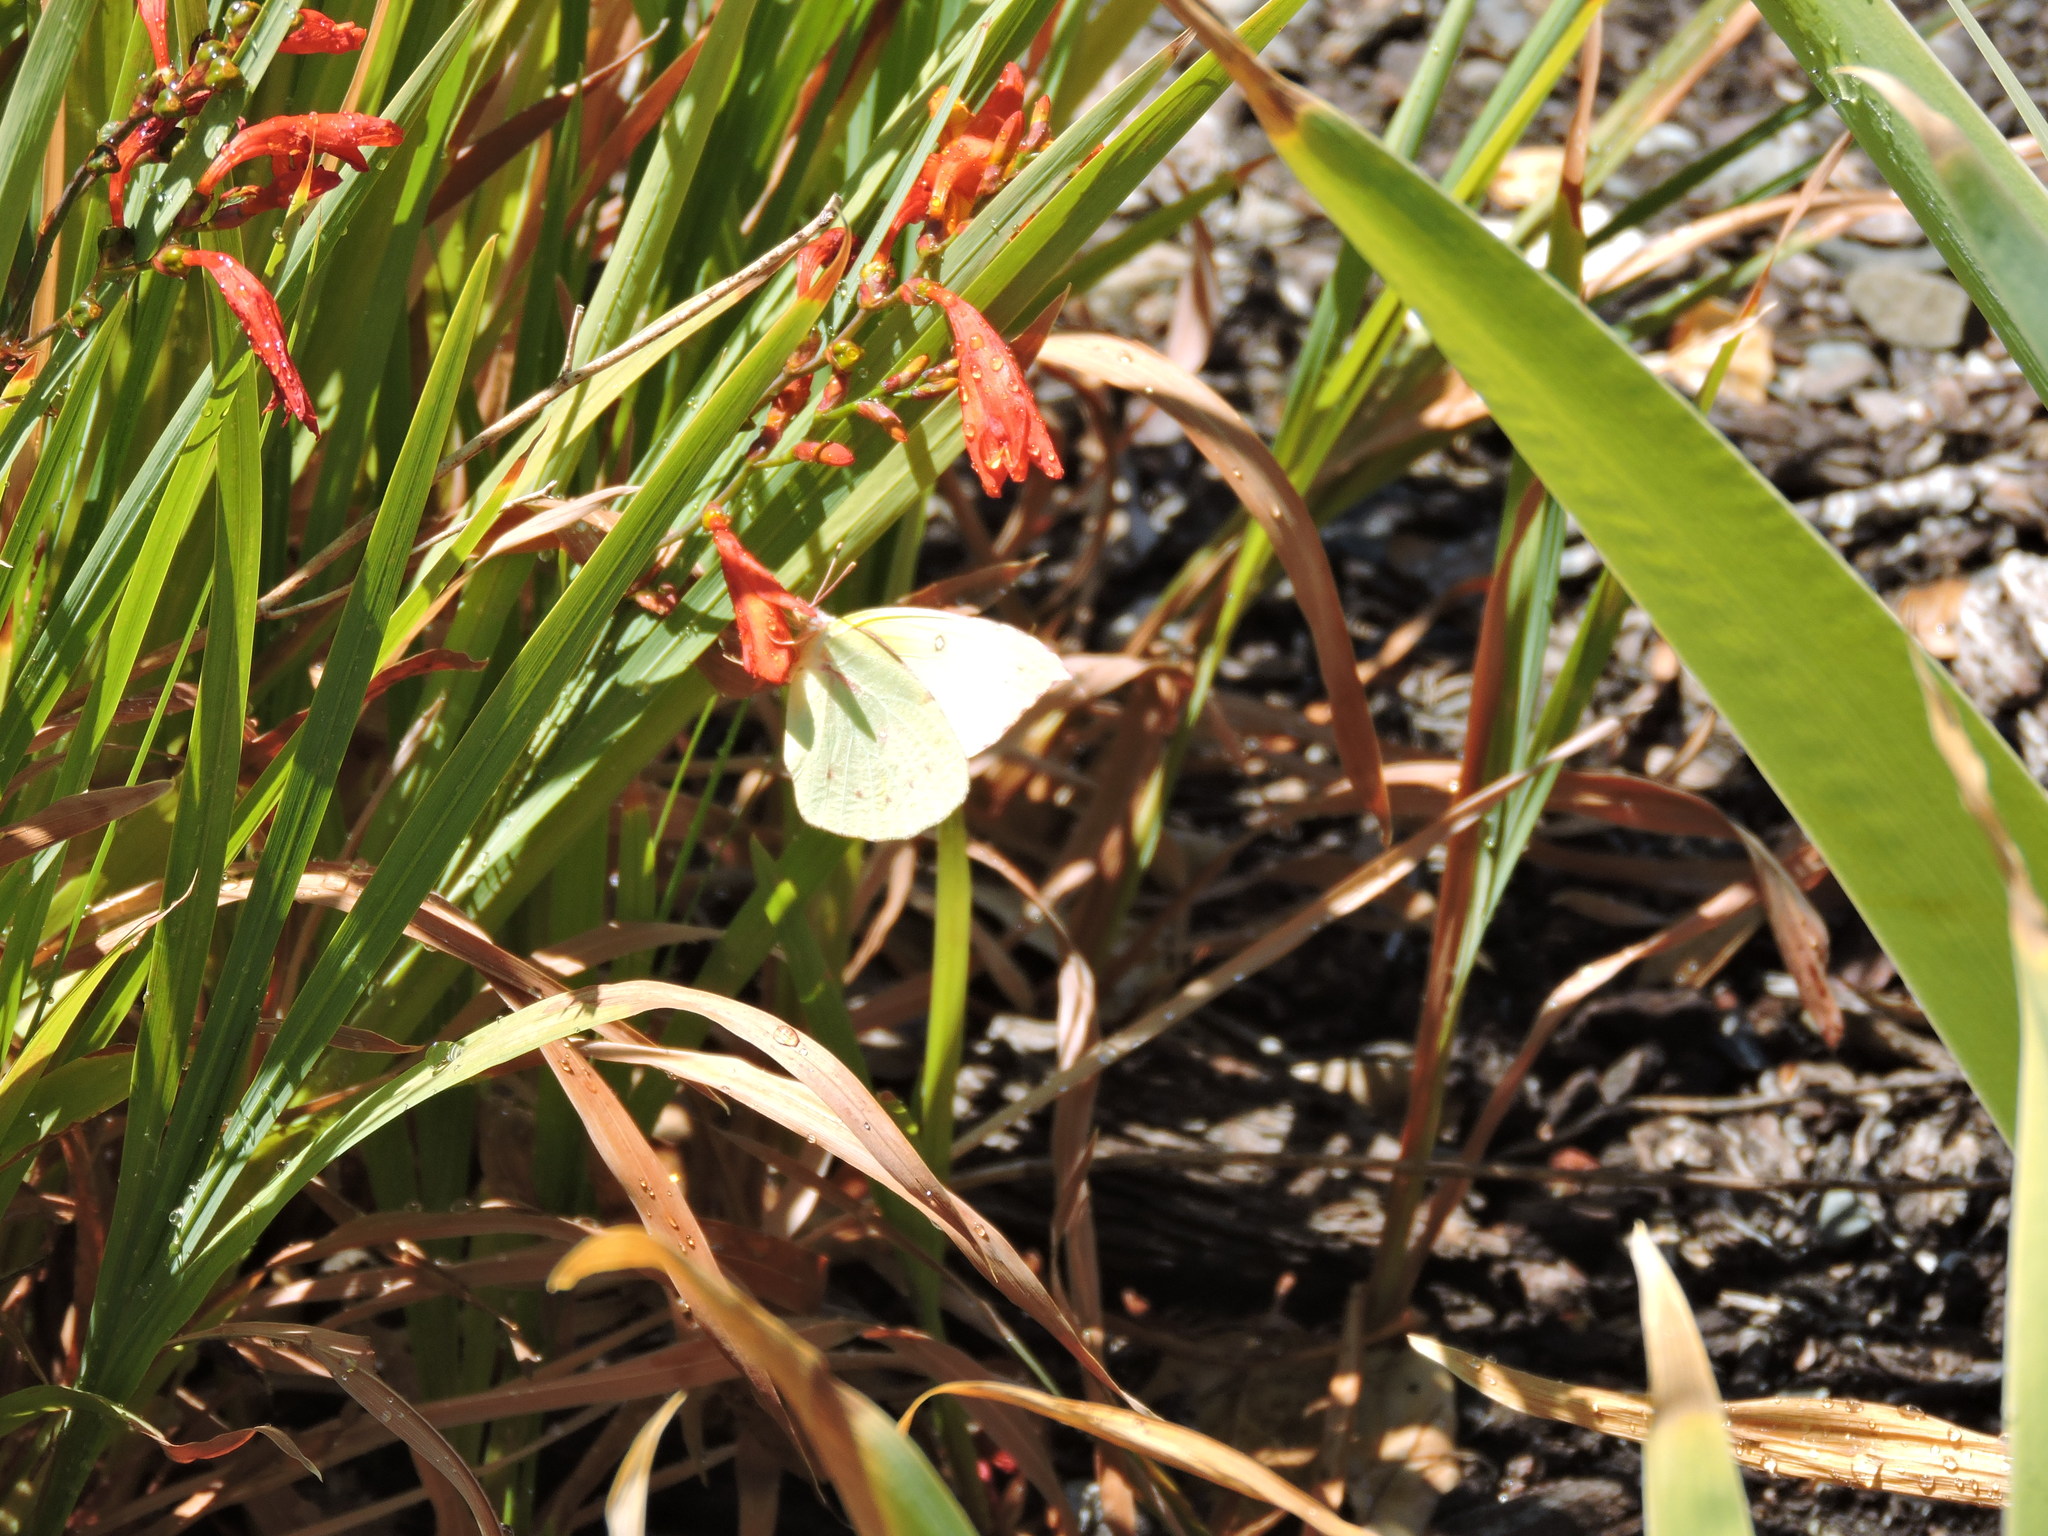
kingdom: Animalia
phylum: Arthropoda
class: Insecta
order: Lepidoptera
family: Pieridae
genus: Zerene
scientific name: Zerene eurydice
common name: California dogface
